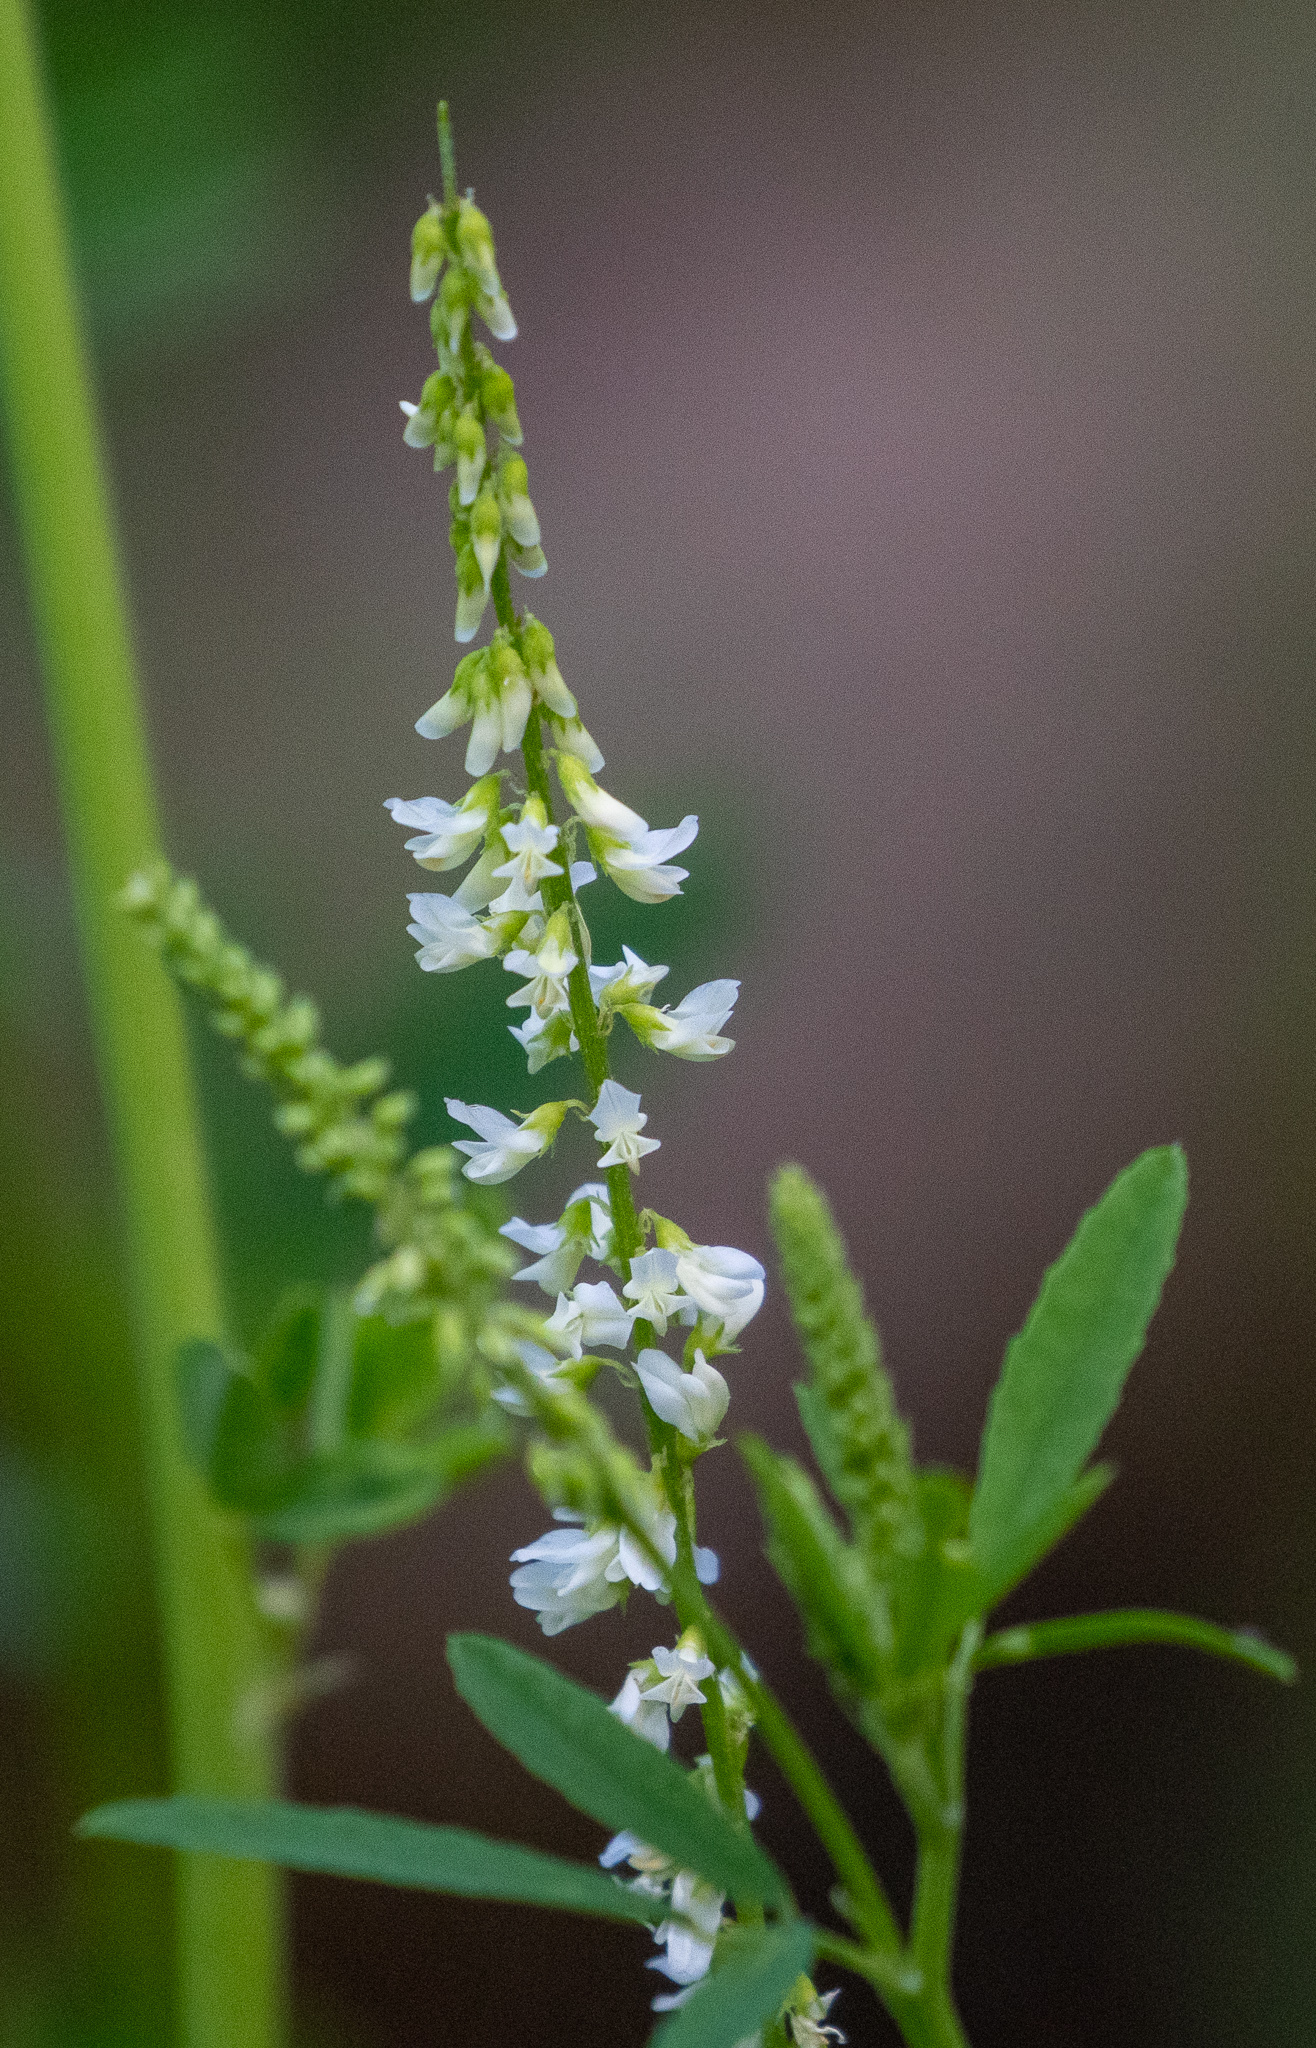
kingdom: Plantae
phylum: Tracheophyta
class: Magnoliopsida
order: Fabales
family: Fabaceae
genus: Melilotus
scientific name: Melilotus albus
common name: White melilot
